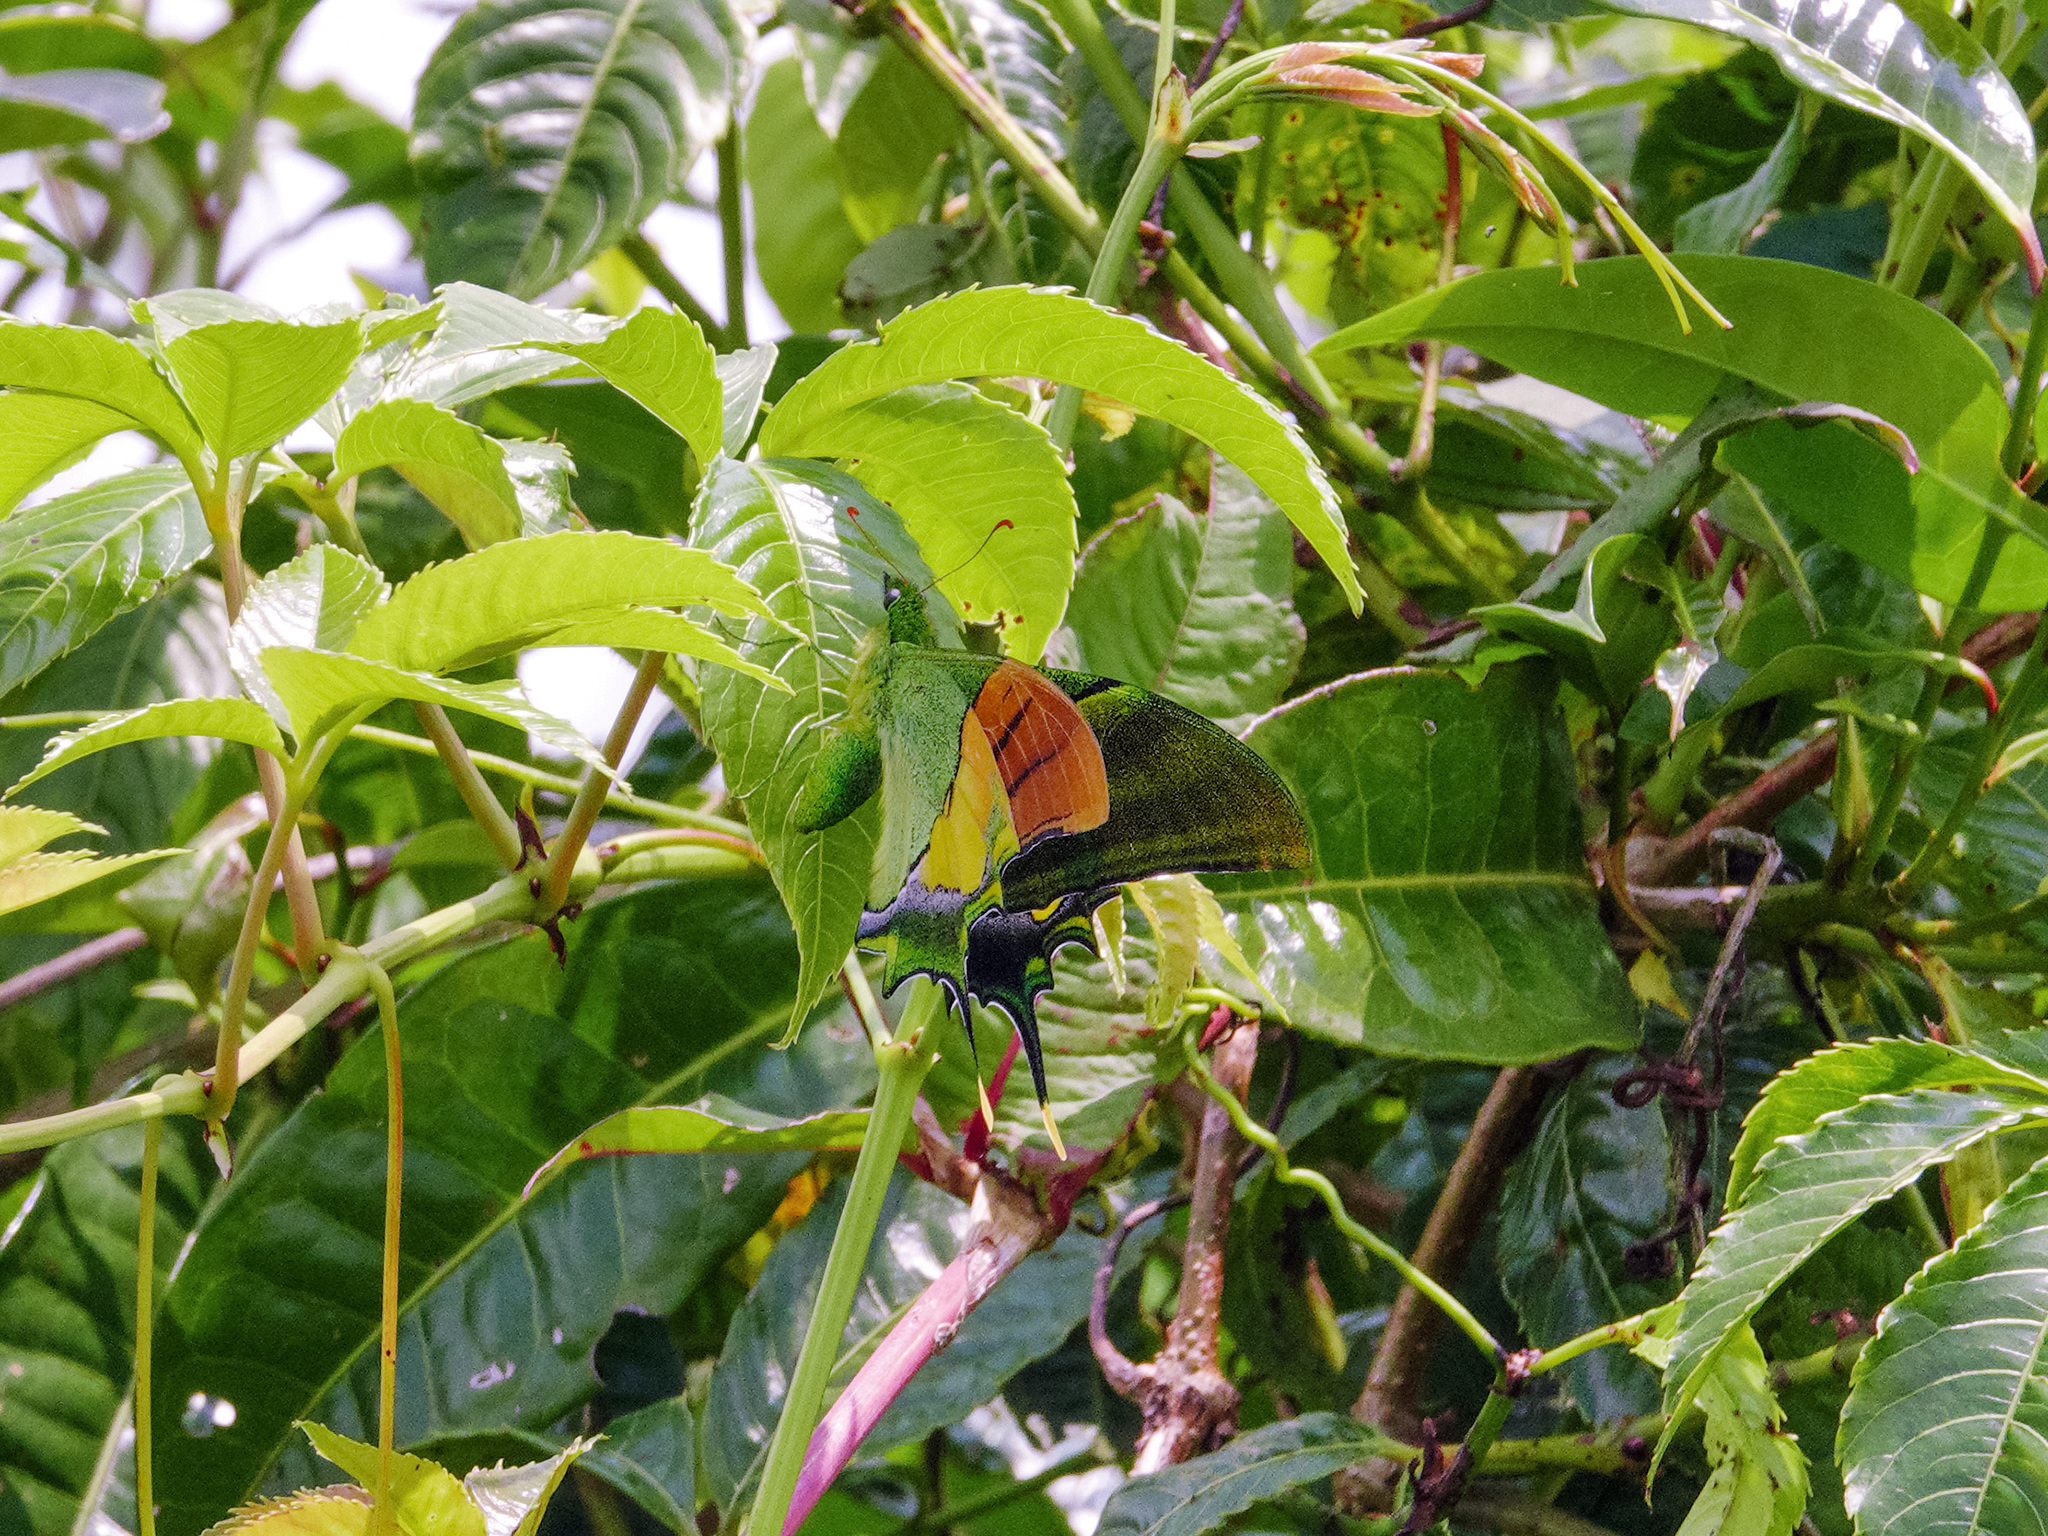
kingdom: Animalia
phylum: Arthropoda
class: Insecta
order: Lepidoptera
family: Papilionidae
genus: Teinopalpus
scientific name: Teinopalpus imperialis
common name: Kaiser-i-hind
